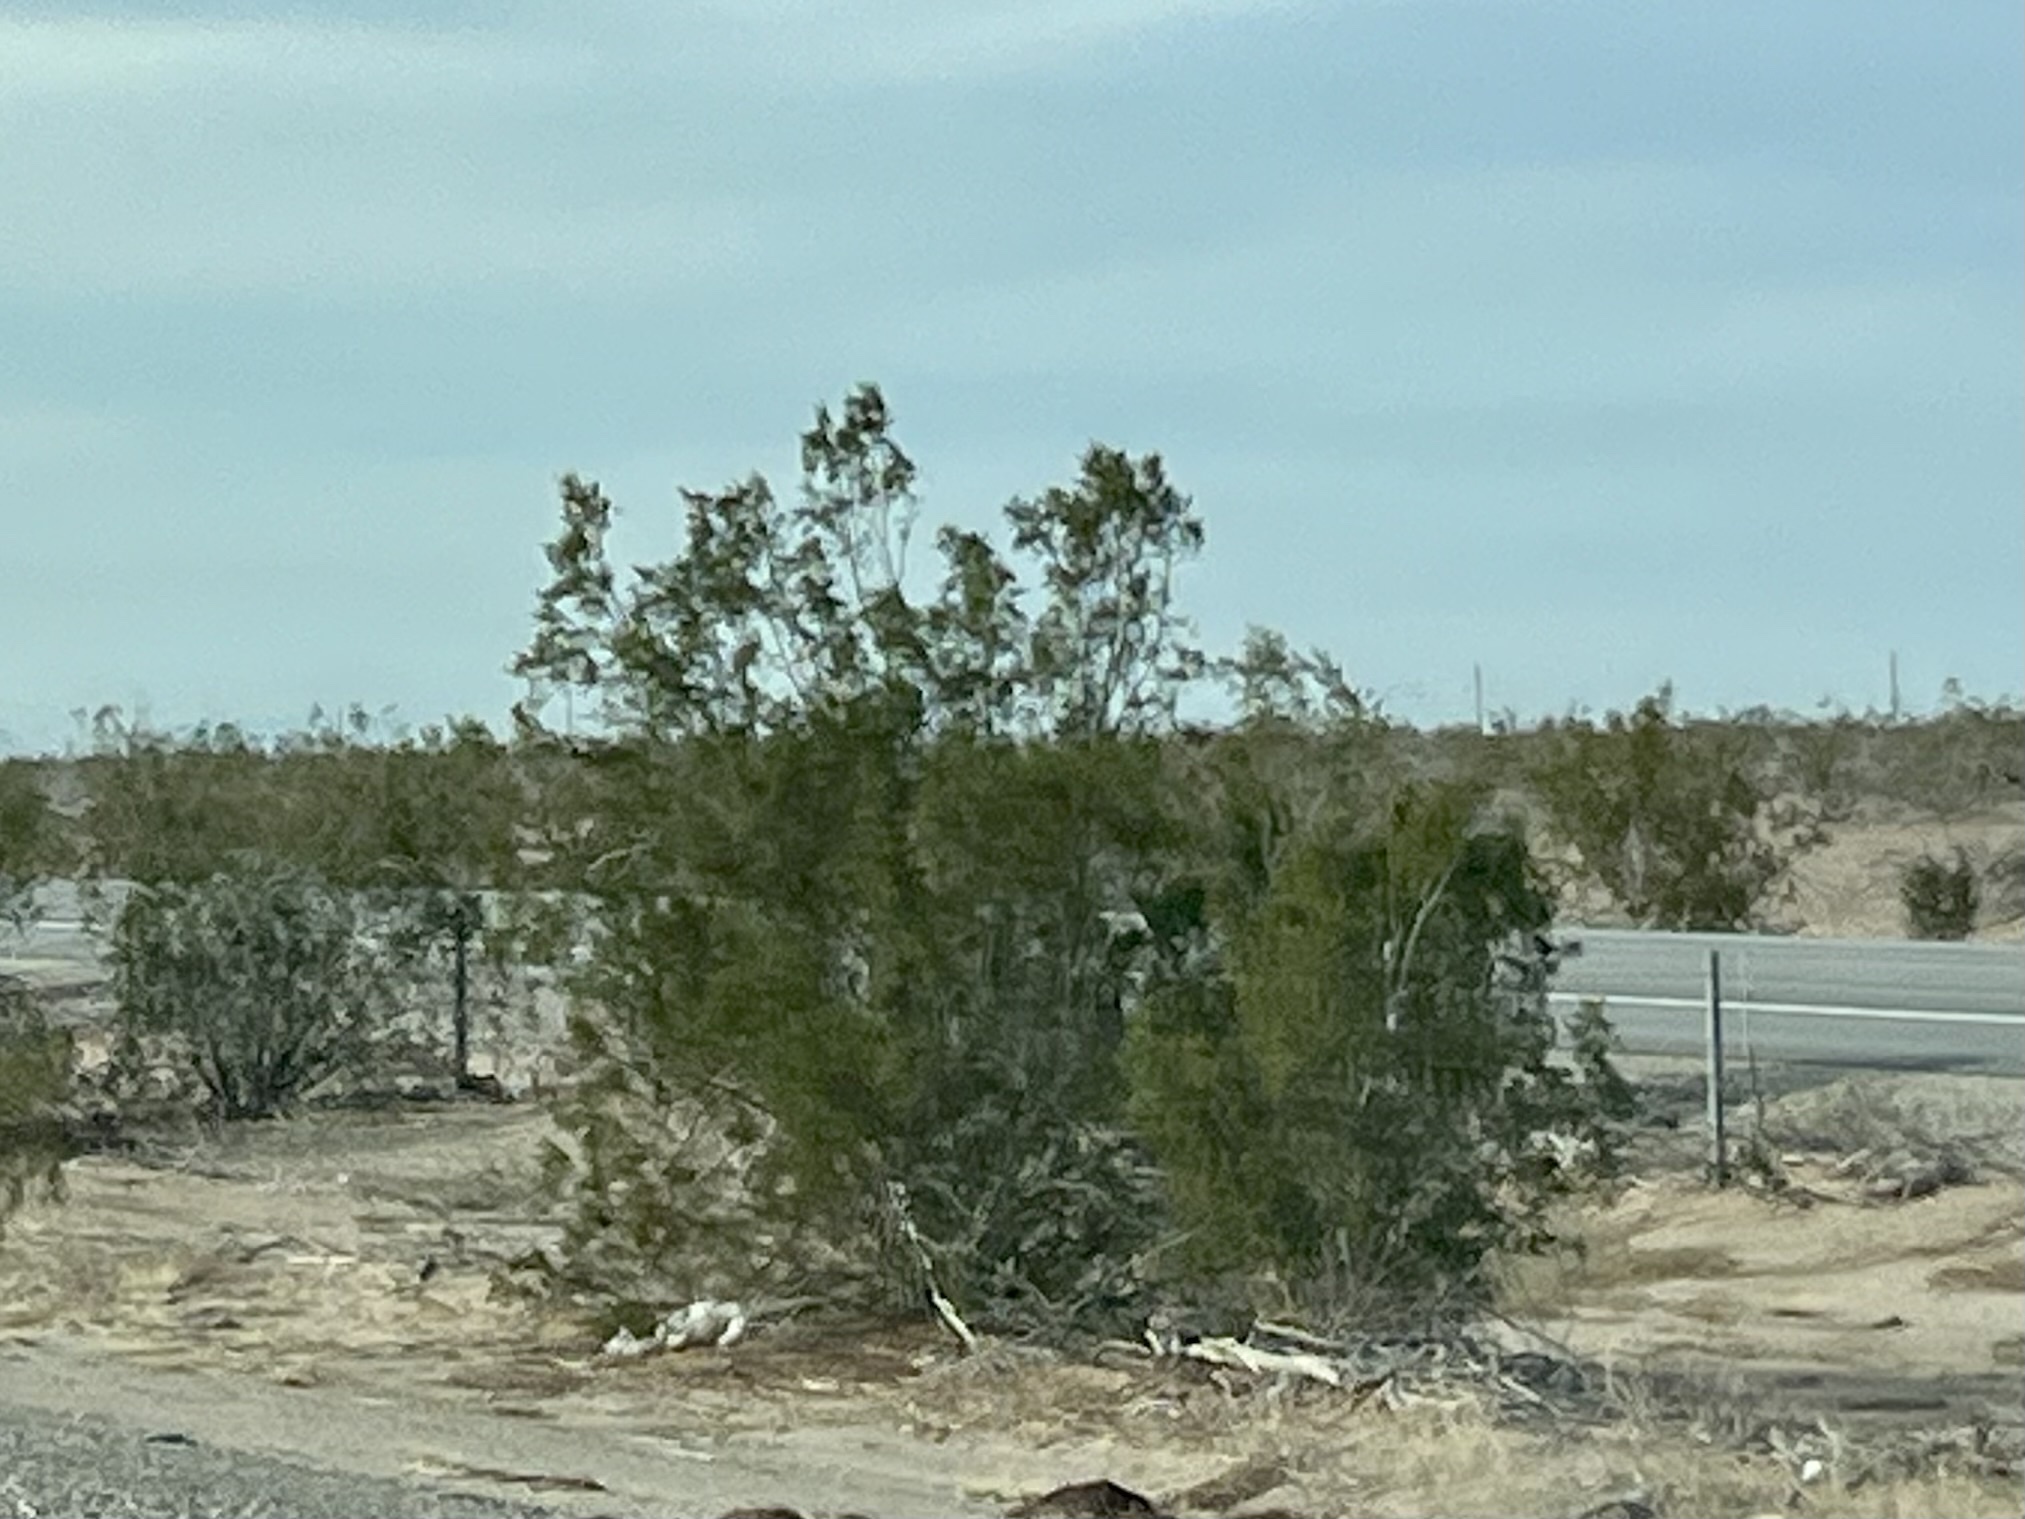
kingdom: Plantae
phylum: Tracheophyta
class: Magnoliopsida
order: Zygophyllales
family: Zygophyllaceae
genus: Larrea
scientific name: Larrea tridentata
